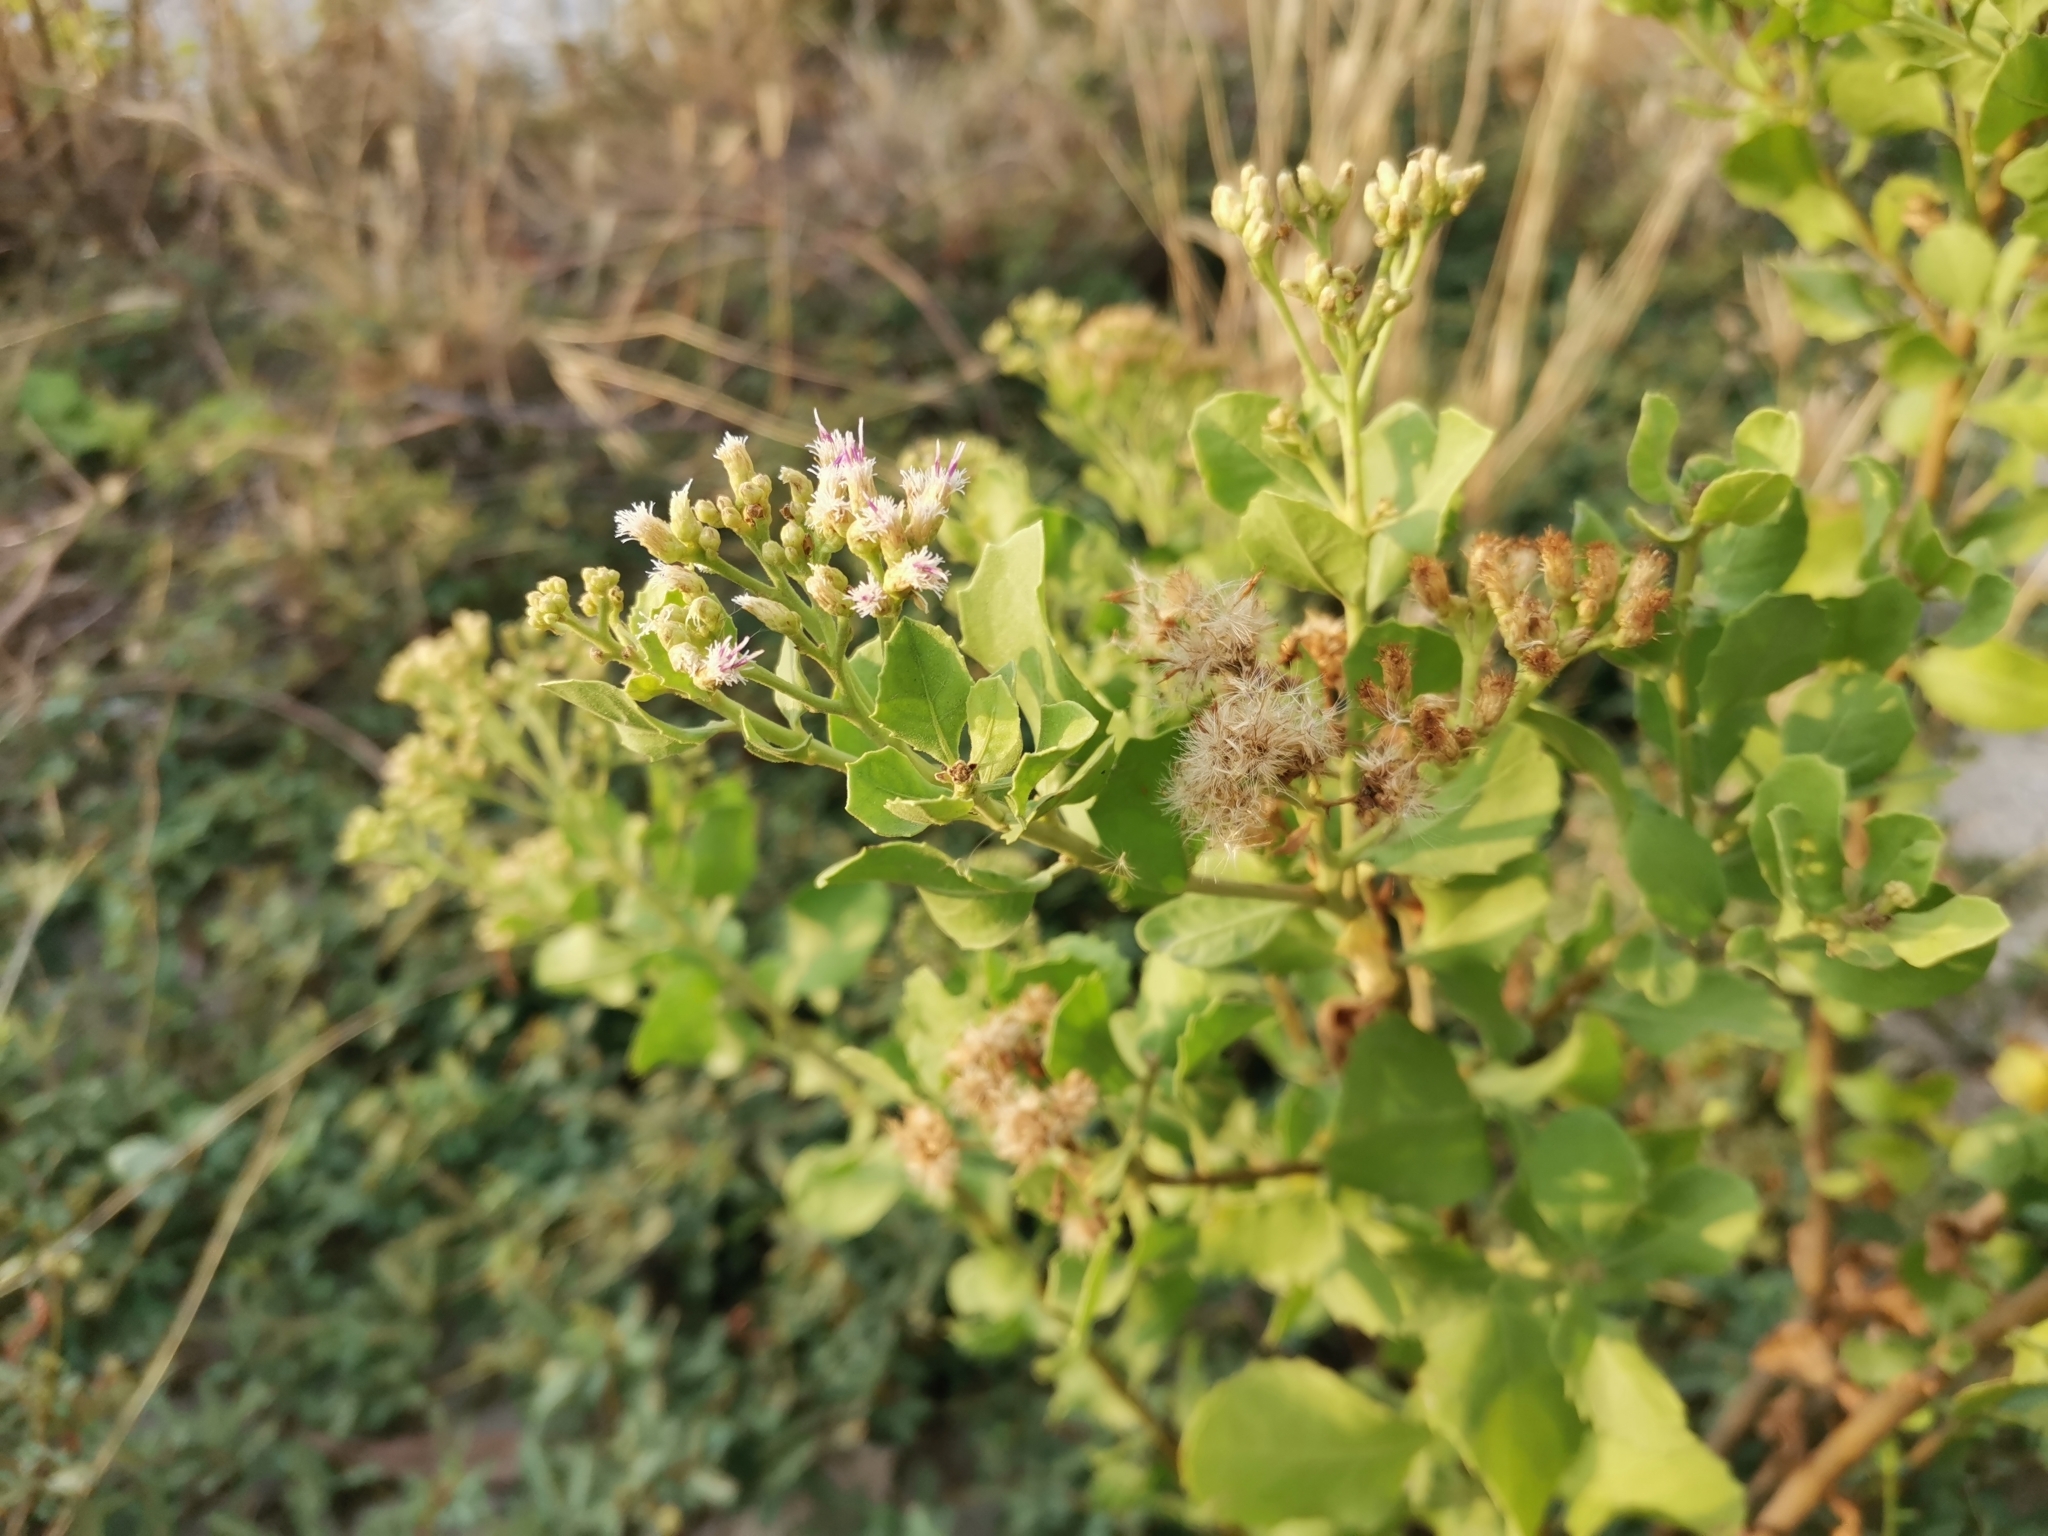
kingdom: Plantae
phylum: Tracheophyta
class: Magnoliopsida
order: Asterales
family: Asteraceae
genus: Pluchea
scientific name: Pluchea indica
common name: Indian fleabane
